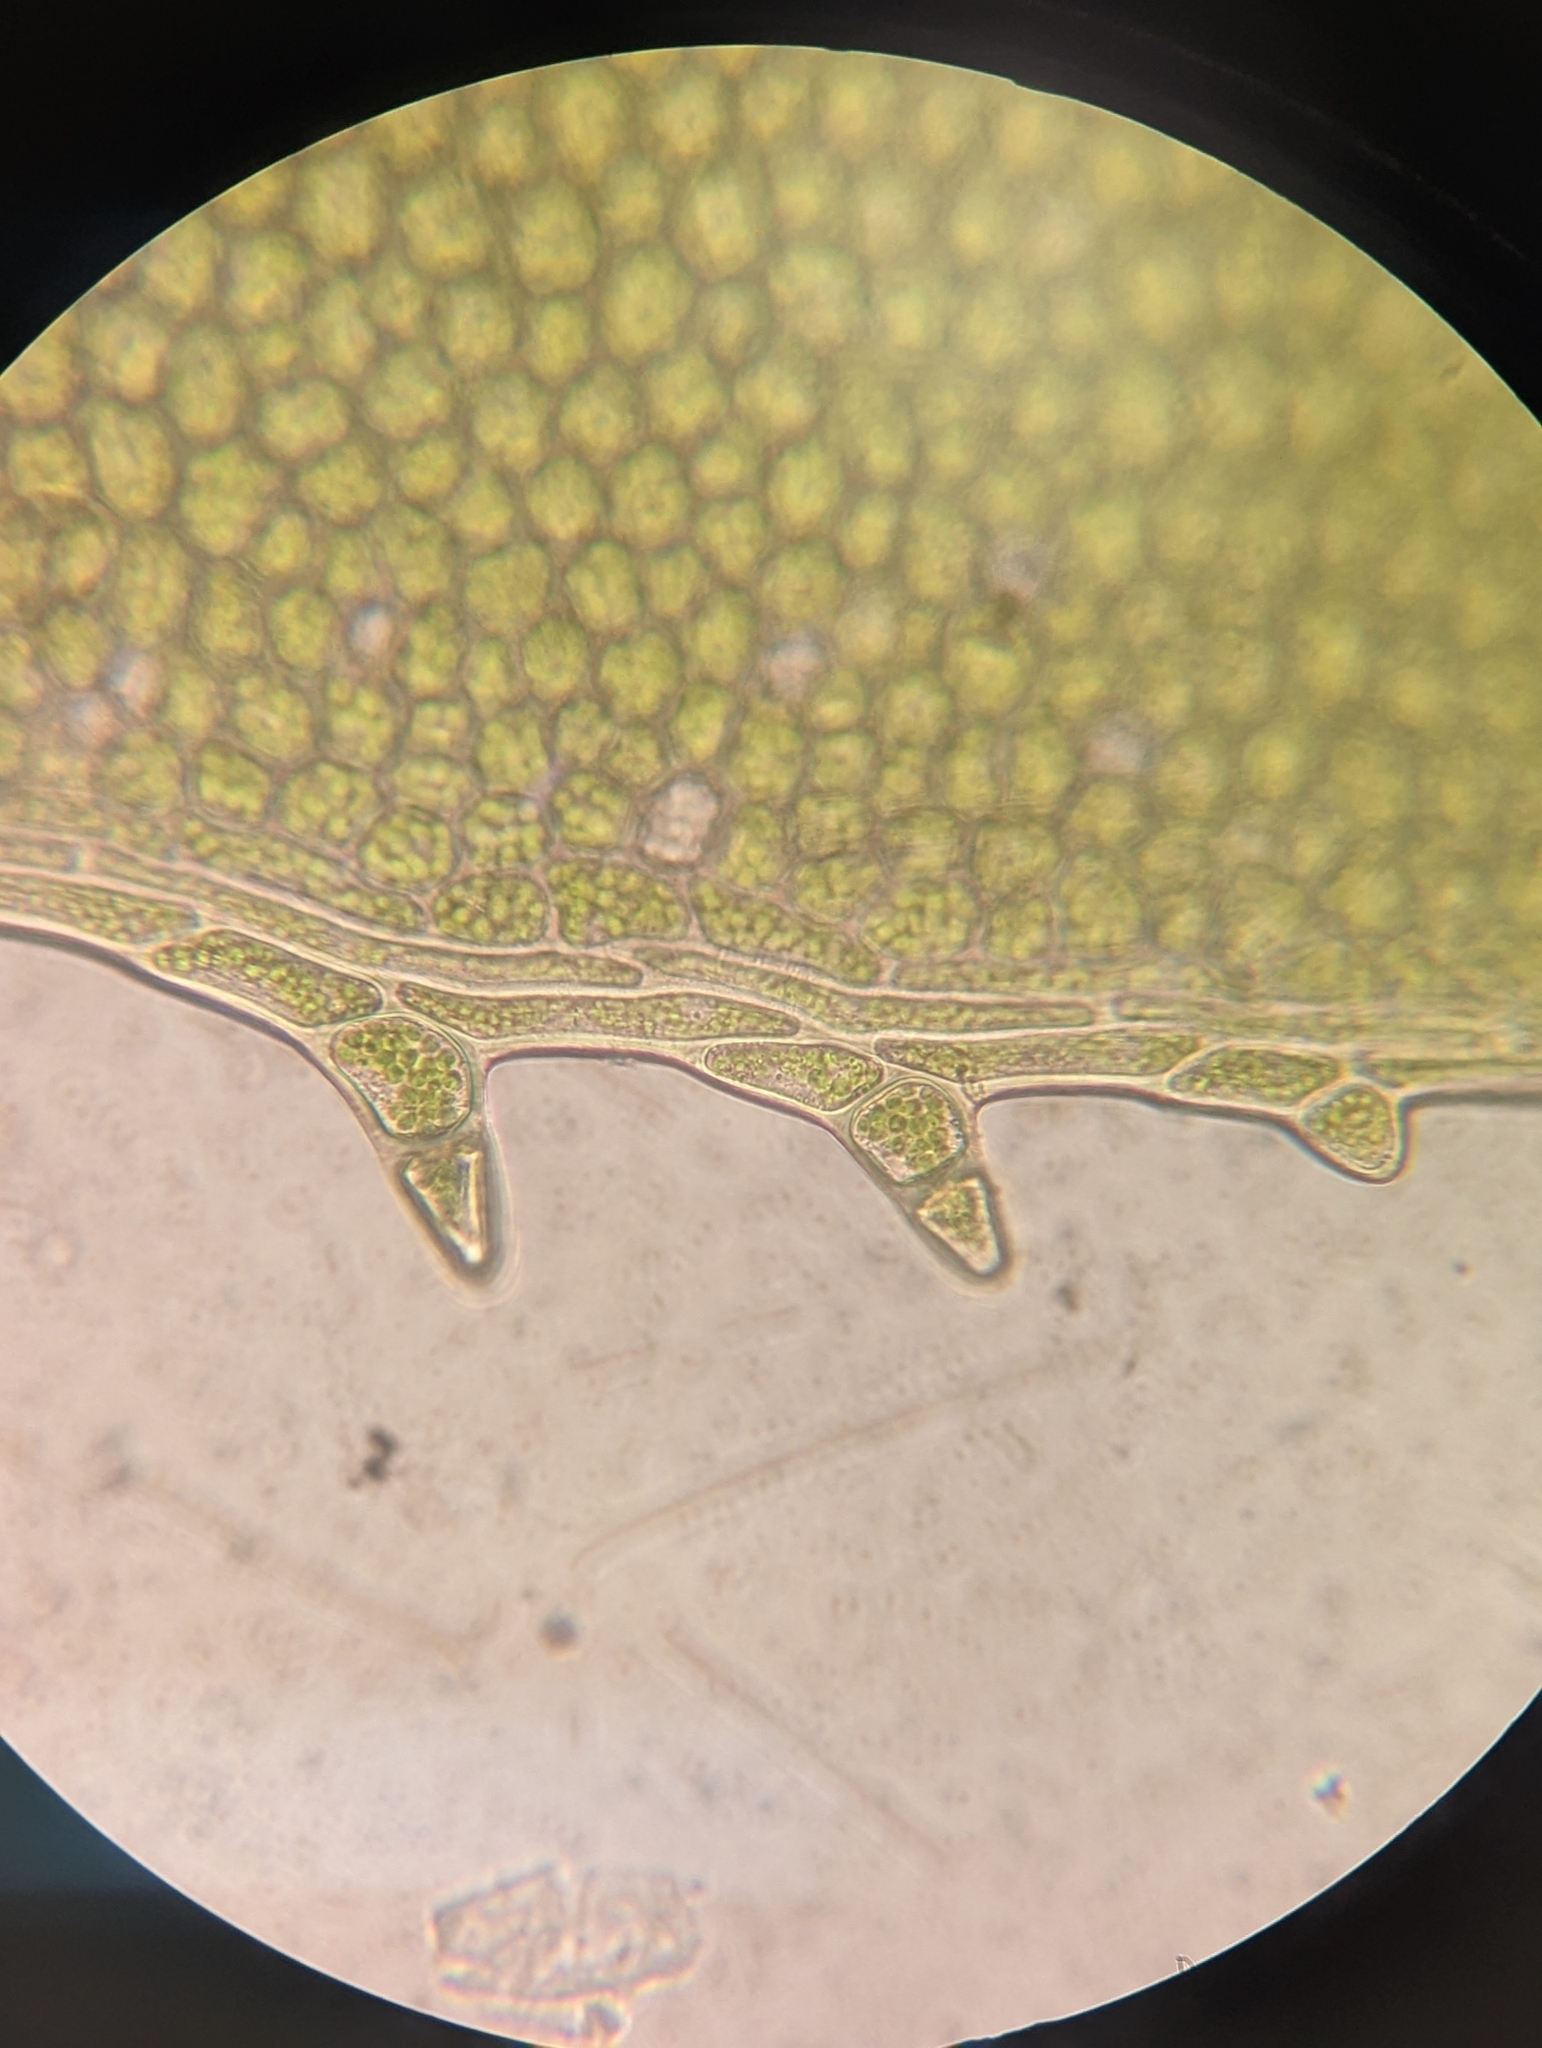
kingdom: Plantae
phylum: Bryophyta
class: Bryopsida
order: Bryales
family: Mniaceae
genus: Plagiomnium
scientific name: Plagiomnium ciliare
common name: Toothed leafy moss
